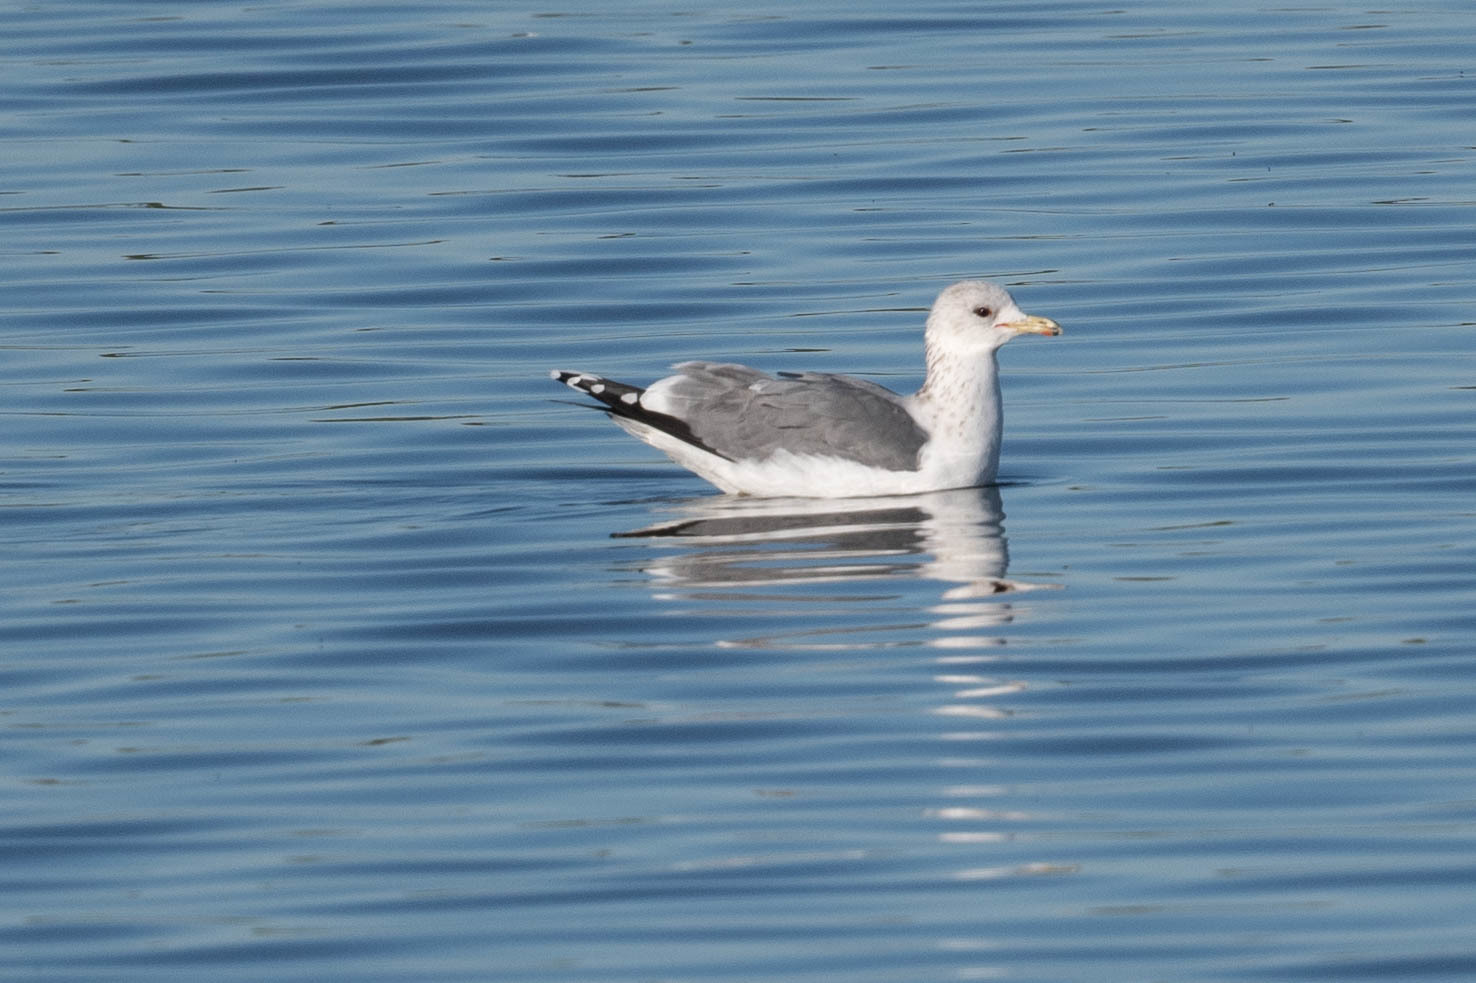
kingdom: Animalia
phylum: Chordata
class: Aves
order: Charadriiformes
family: Laridae
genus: Larus
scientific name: Larus californicus
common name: California gull
